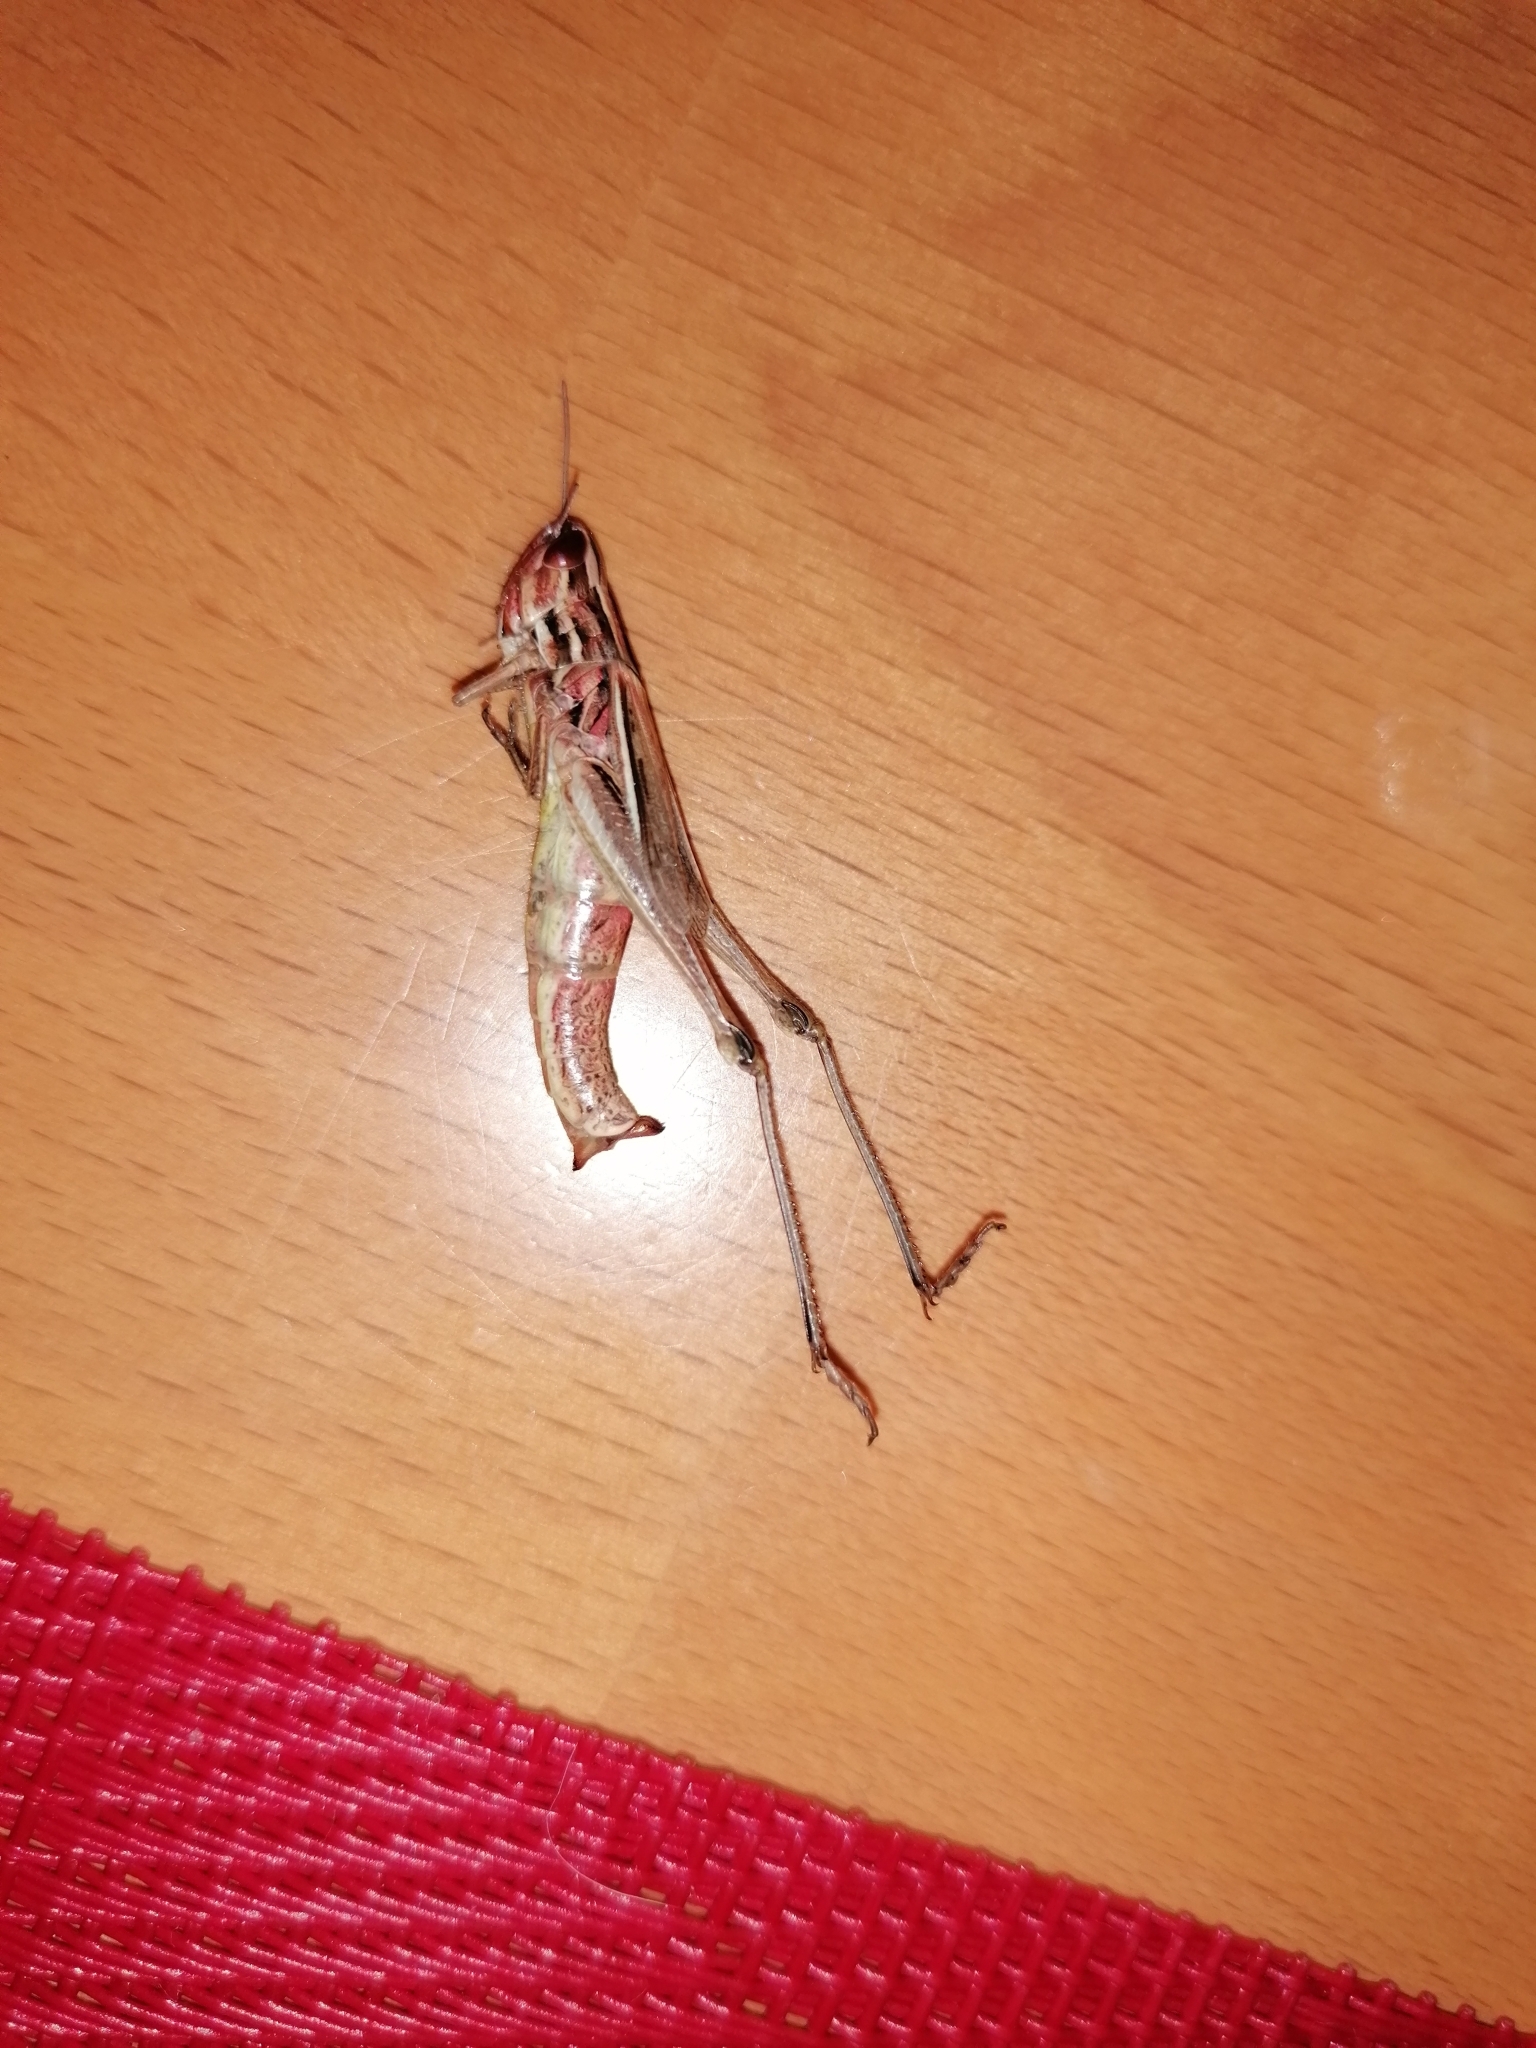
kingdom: Animalia
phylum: Arthropoda
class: Insecta
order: Orthoptera
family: Acrididae
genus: Euchorthippus
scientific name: Euchorthippus declivus
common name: Common straw grasshopper
